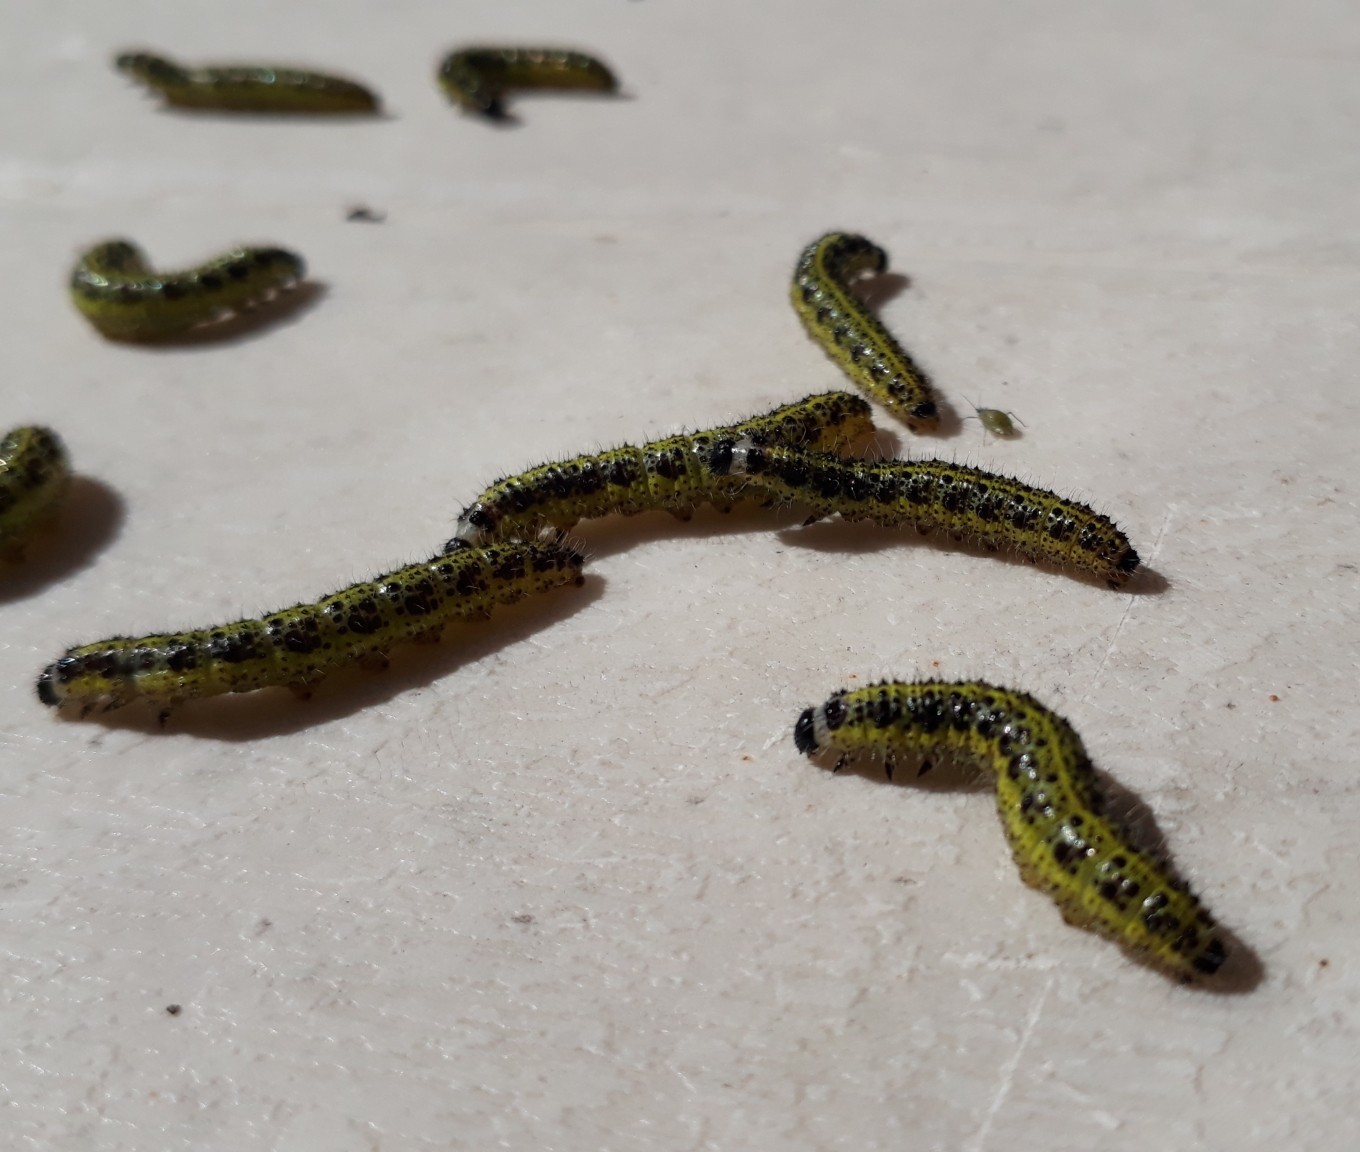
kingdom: Animalia
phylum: Arthropoda
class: Insecta
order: Lepidoptera
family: Pieridae
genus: Pieris
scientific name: Pieris brassicae
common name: Large white
